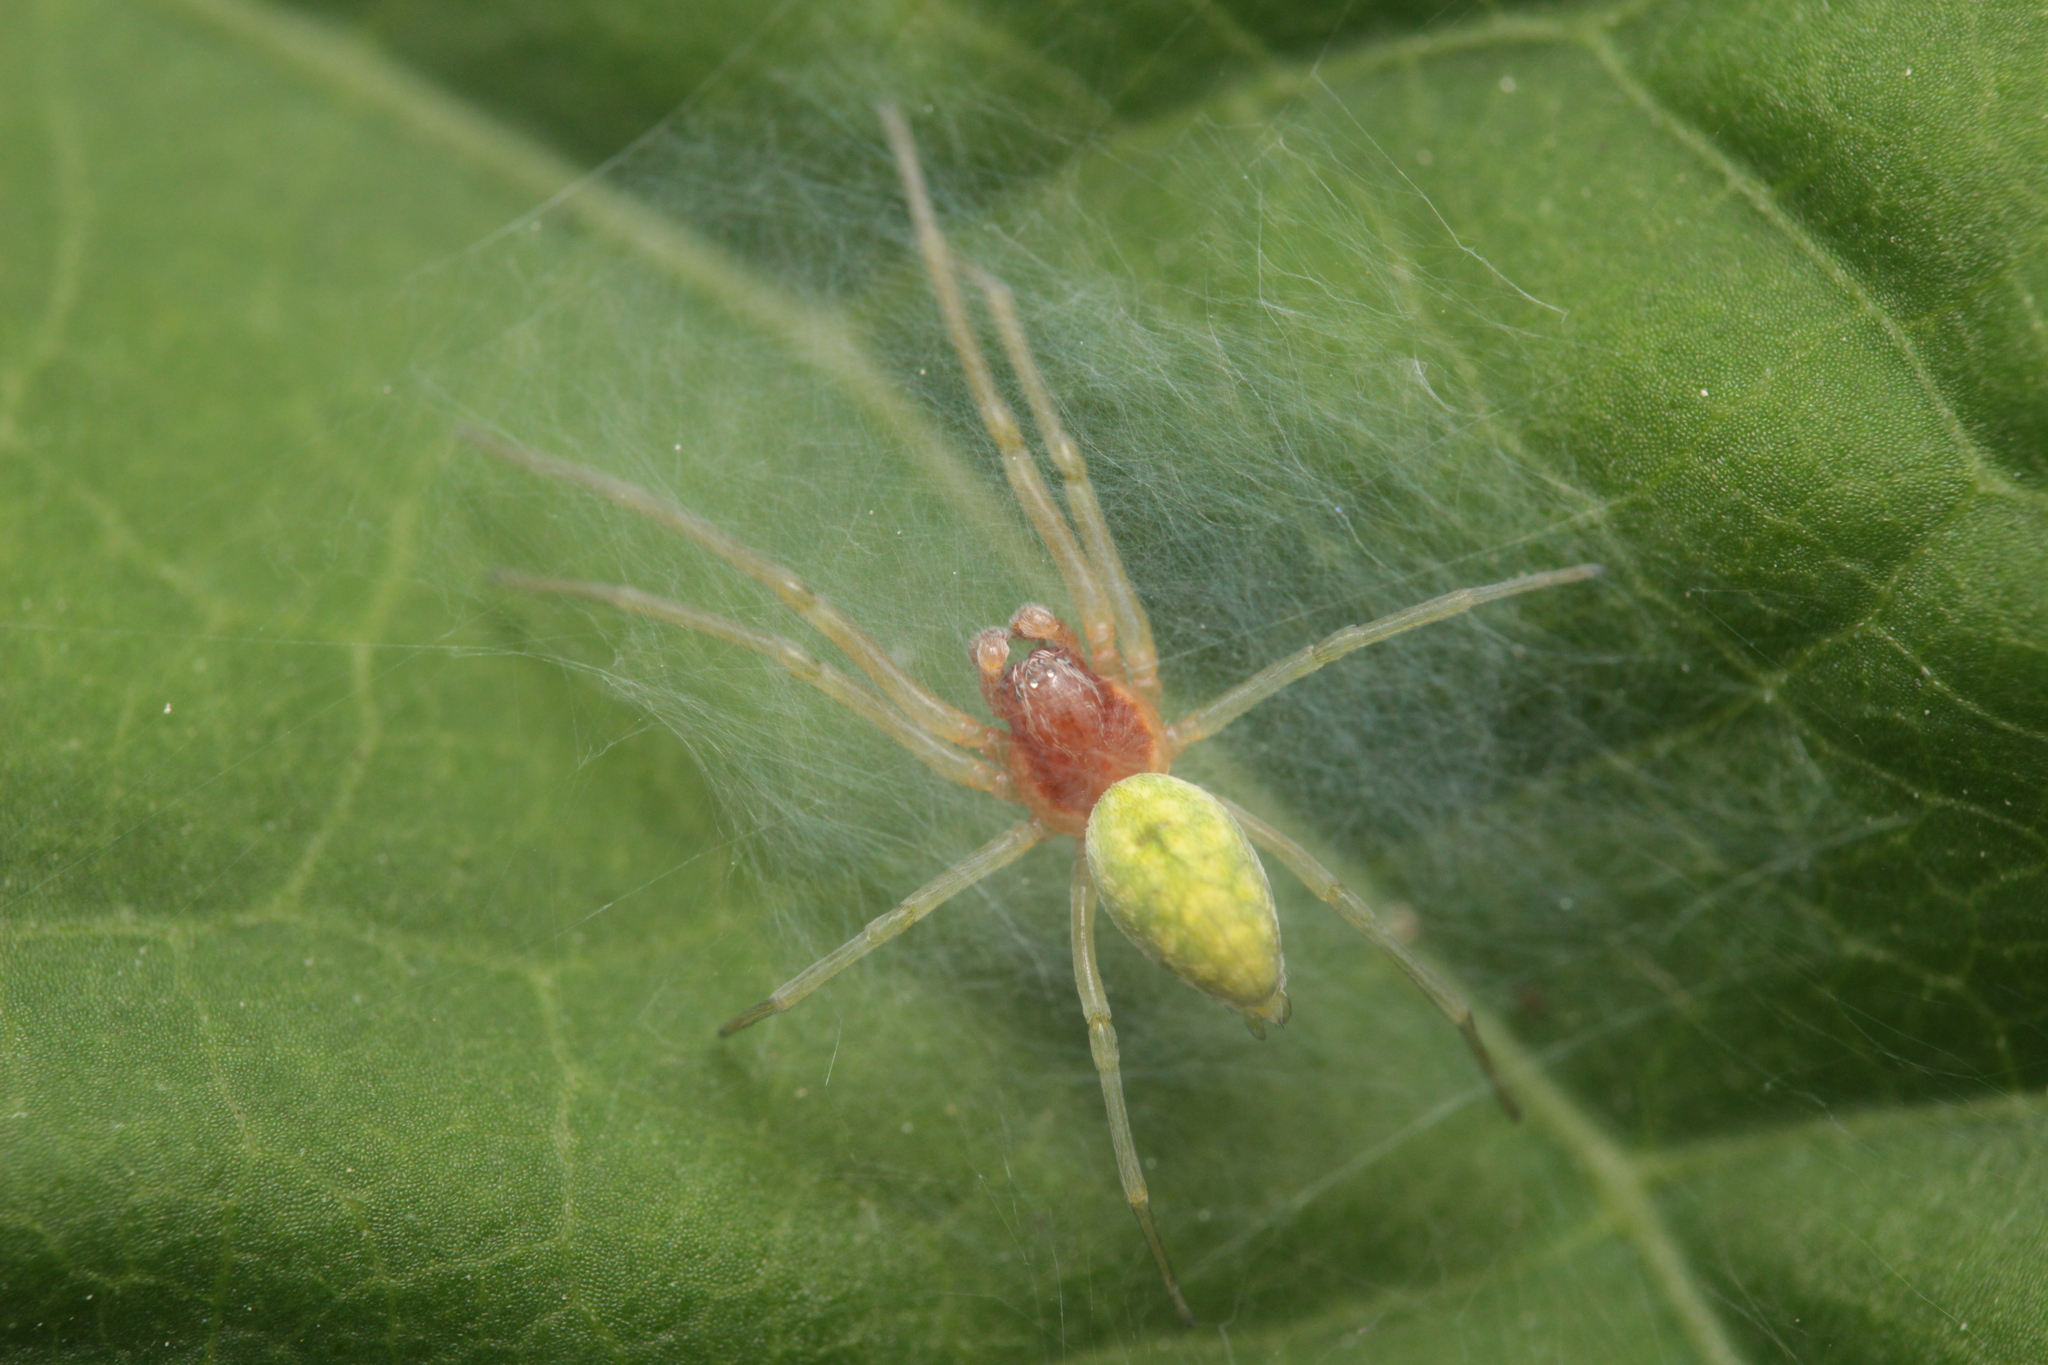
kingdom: Animalia
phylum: Arthropoda
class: Arachnida
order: Araneae
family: Dictynidae
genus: Nigma
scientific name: Nigma walckenaeri
